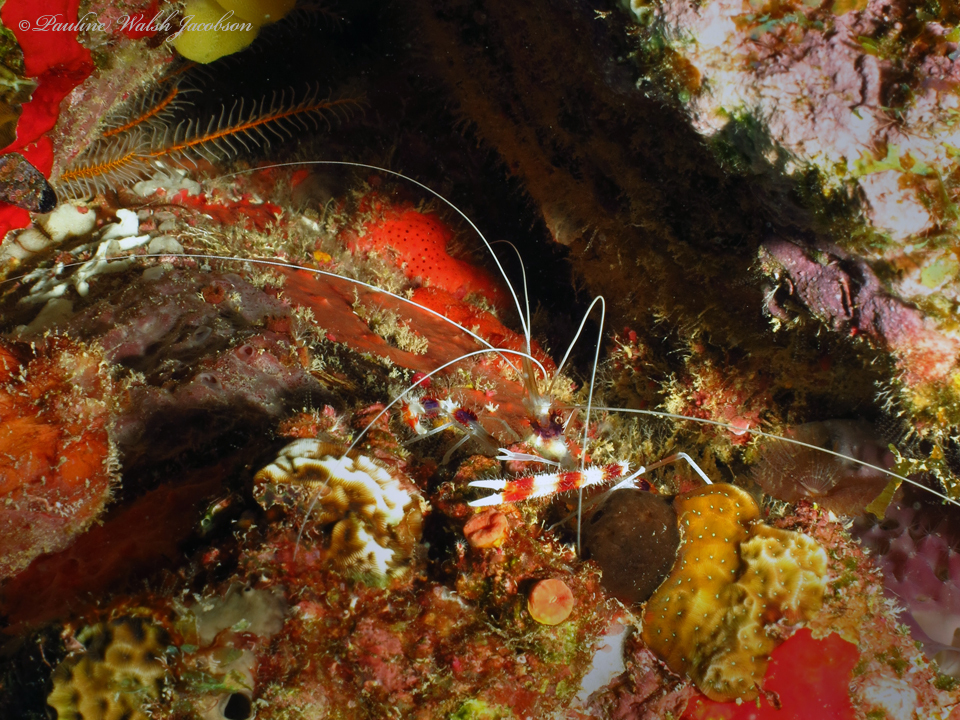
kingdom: Animalia
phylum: Arthropoda
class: Malacostraca
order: Decapoda
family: Stenopodidae
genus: Stenopus
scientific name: Stenopus hispidus
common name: Banded coral shrimp
